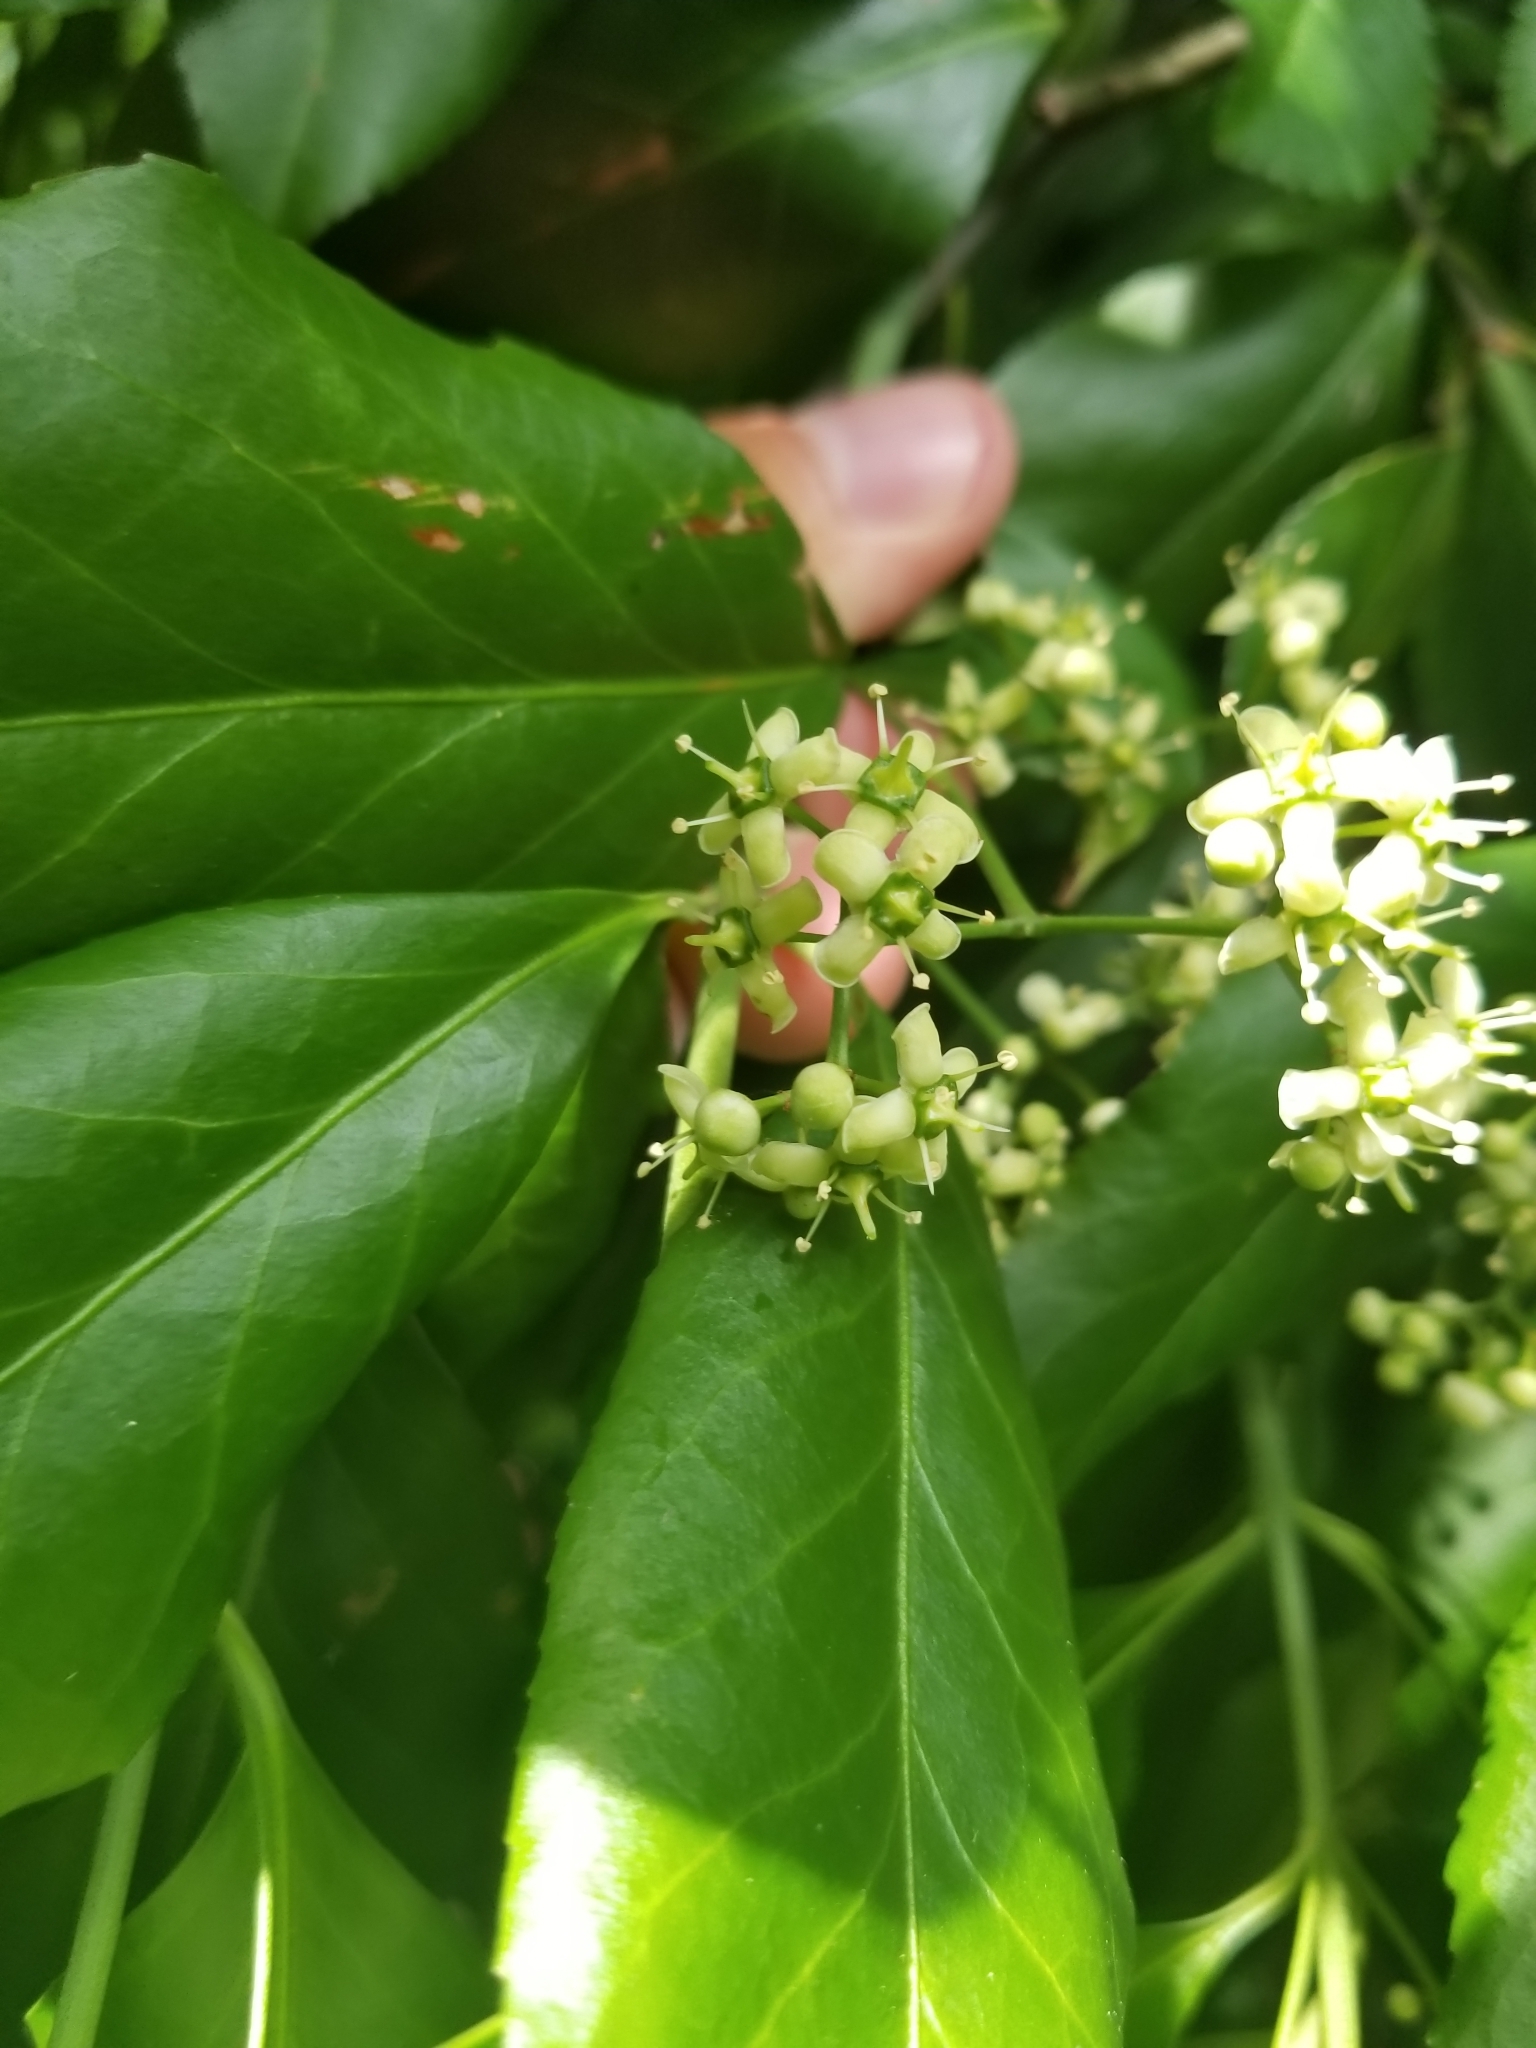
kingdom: Plantae
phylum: Tracheophyta
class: Magnoliopsida
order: Celastrales
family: Celastraceae
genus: Euonymus
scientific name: Euonymus fortunei
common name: Climbing euonymus
